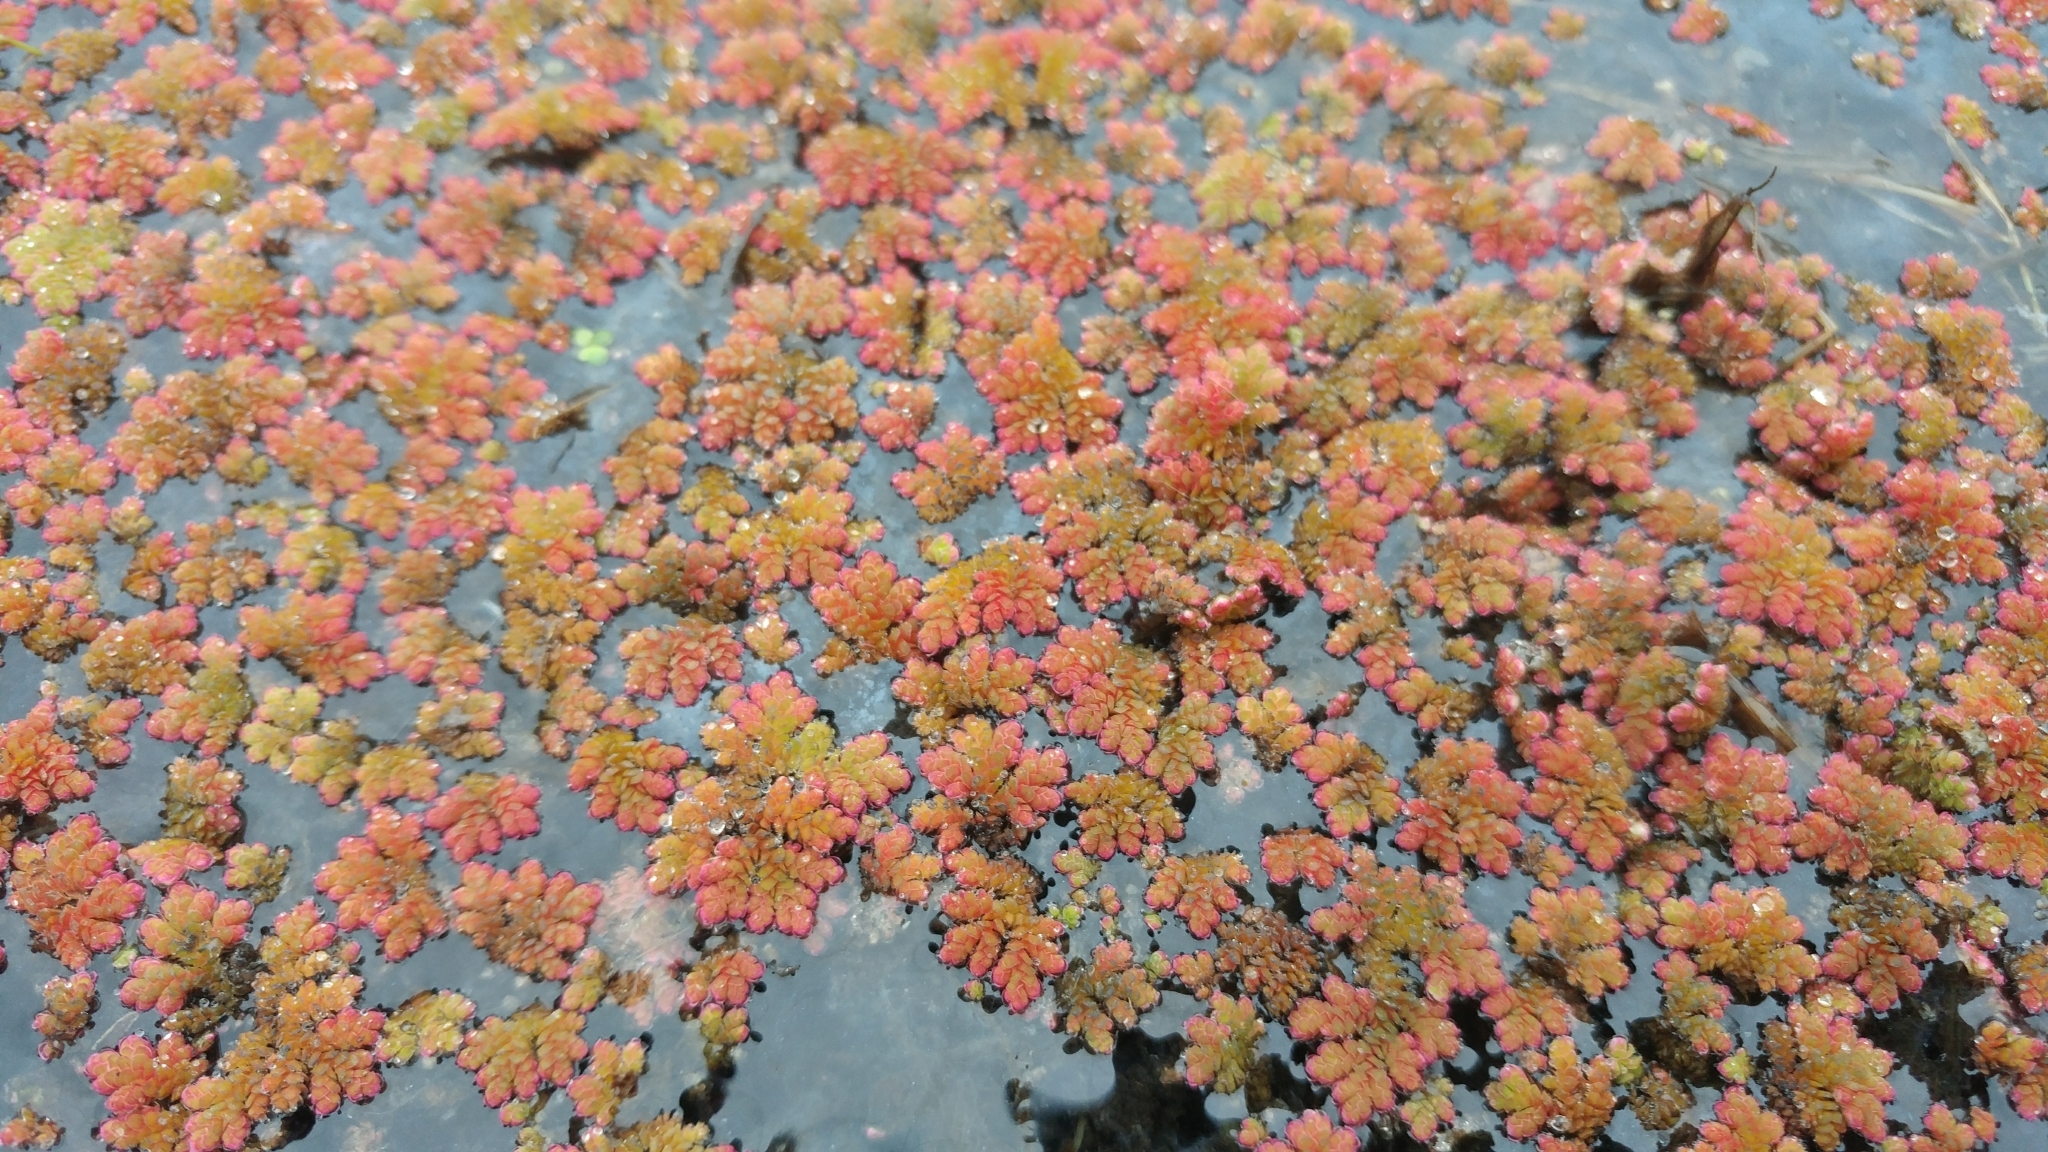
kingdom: Plantae
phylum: Tracheophyta
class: Polypodiopsida
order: Salviniales
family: Salviniaceae
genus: Azolla
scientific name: Azolla filiculoides
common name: Water fern
